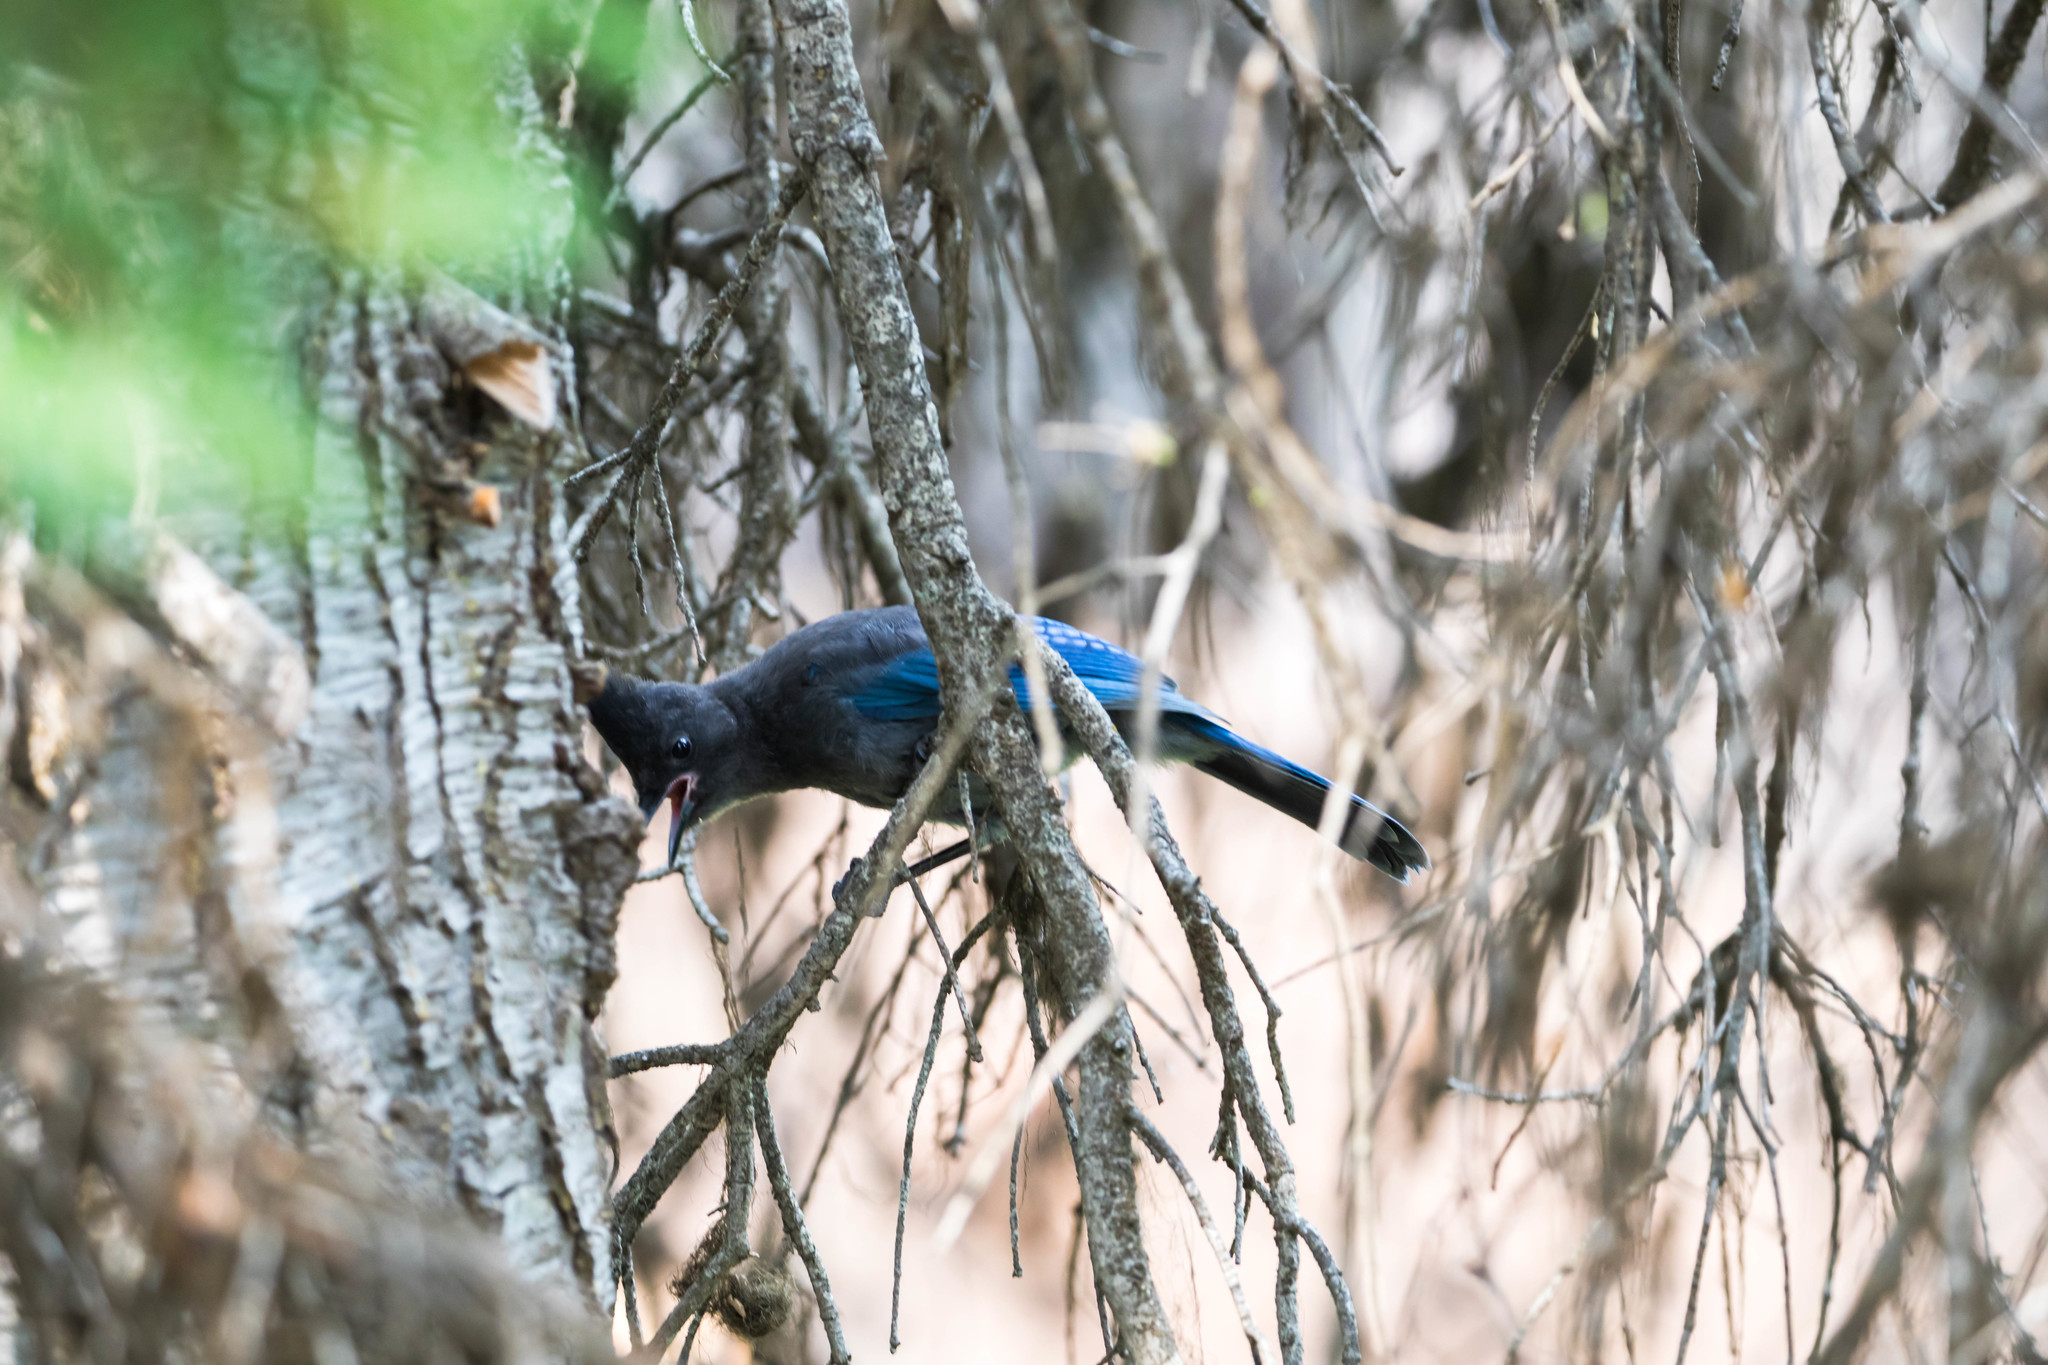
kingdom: Animalia
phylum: Chordata
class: Aves
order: Passeriformes
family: Corvidae
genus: Cyanocitta
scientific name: Cyanocitta stelleri
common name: Steller's jay
